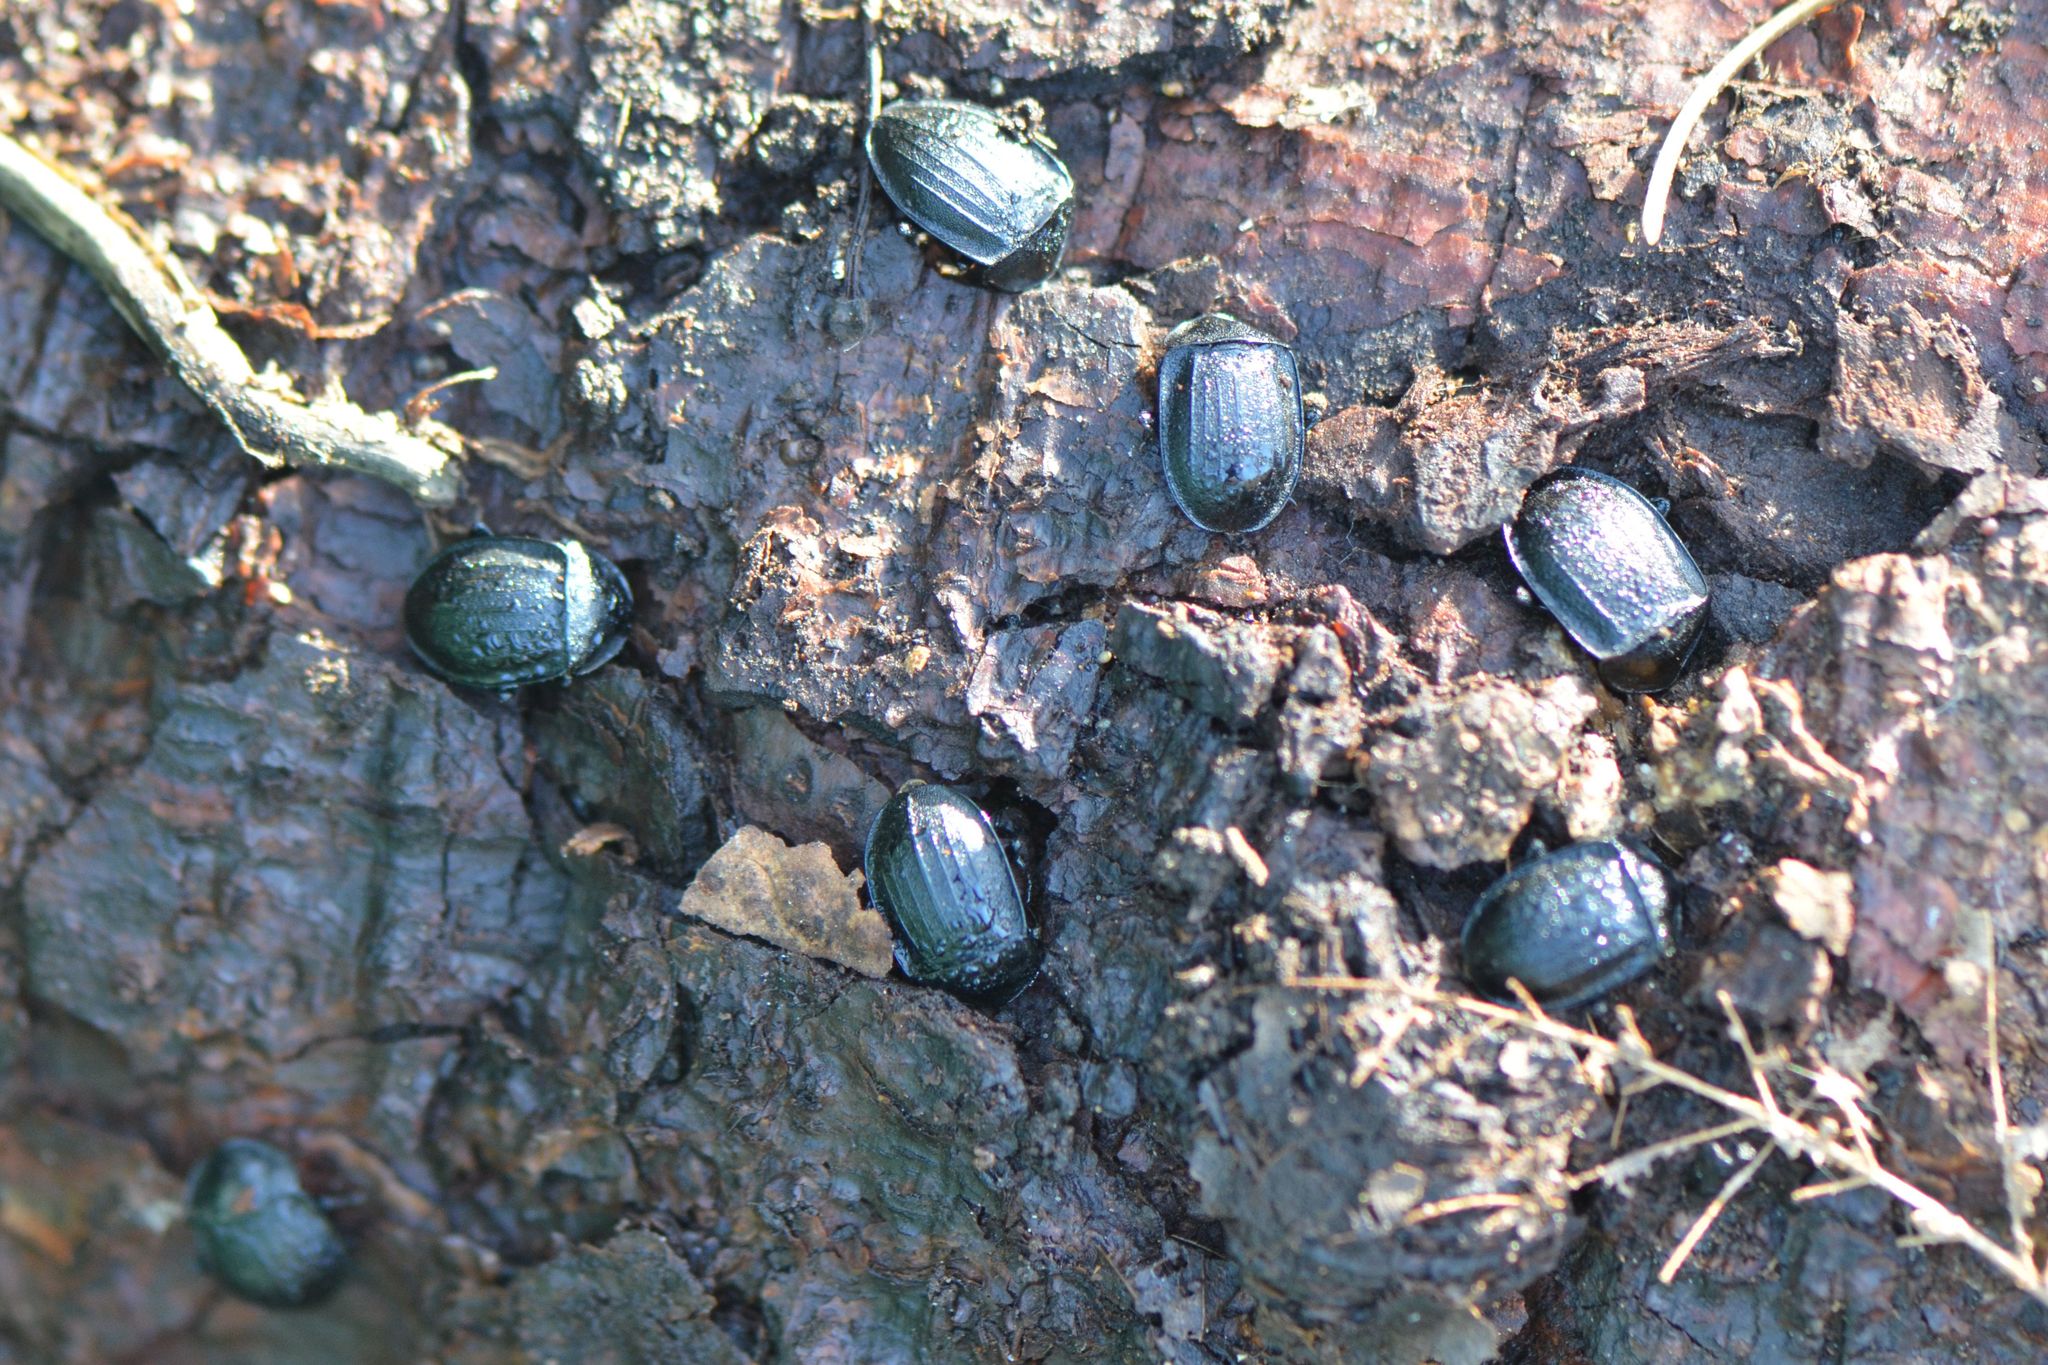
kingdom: Animalia
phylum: Arthropoda
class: Insecta
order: Coleoptera
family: Staphylinidae
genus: Silpha
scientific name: Silpha atrata
